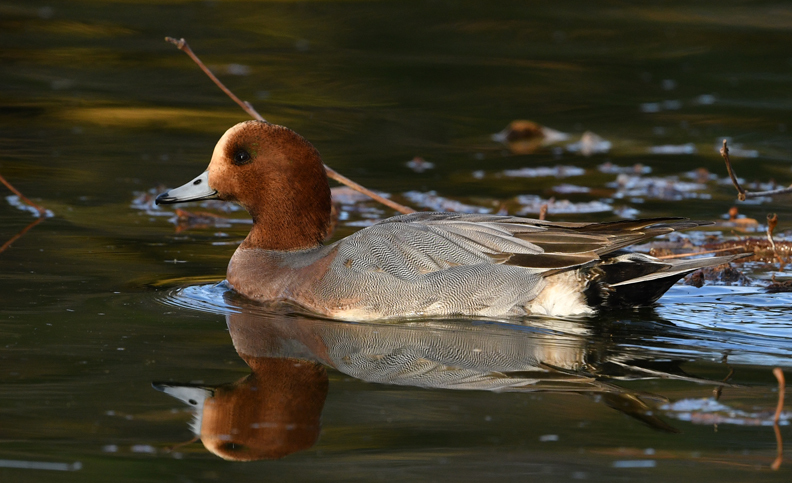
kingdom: Animalia
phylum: Chordata
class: Aves
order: Anseriformes
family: Anatidae
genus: Mareca
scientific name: Mareca penelope
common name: Eurasian wigeon
